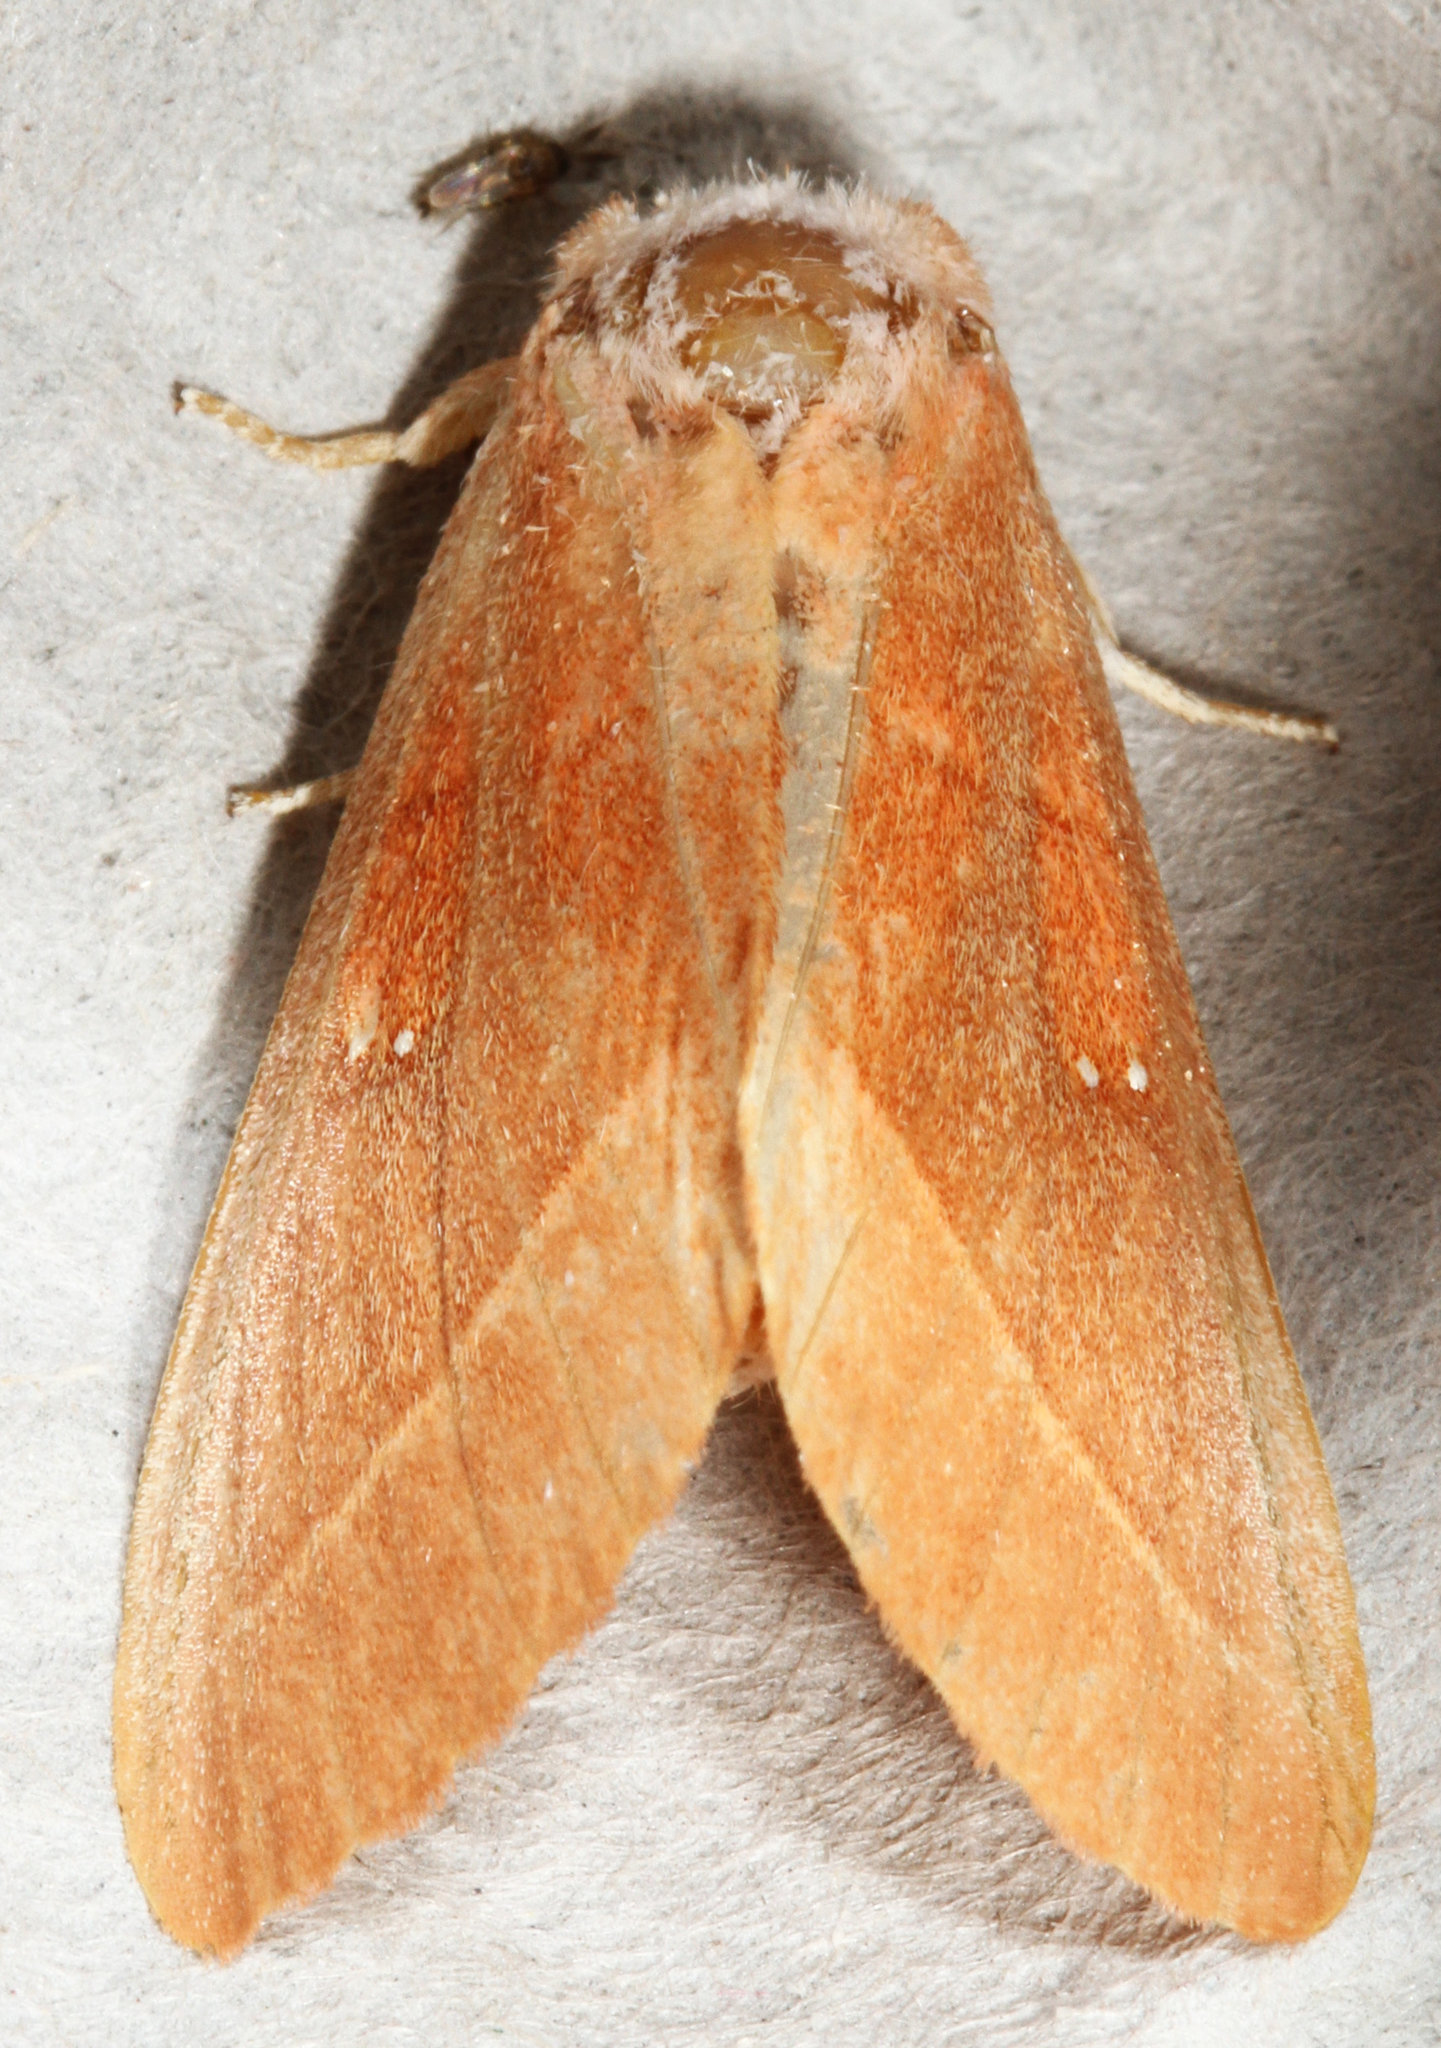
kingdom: Animalia
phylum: Arthropoda
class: Insecta
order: Lepidoptera
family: Notodontidae
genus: Nadata
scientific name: Nadata gibbosa
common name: White-dotted prominent
